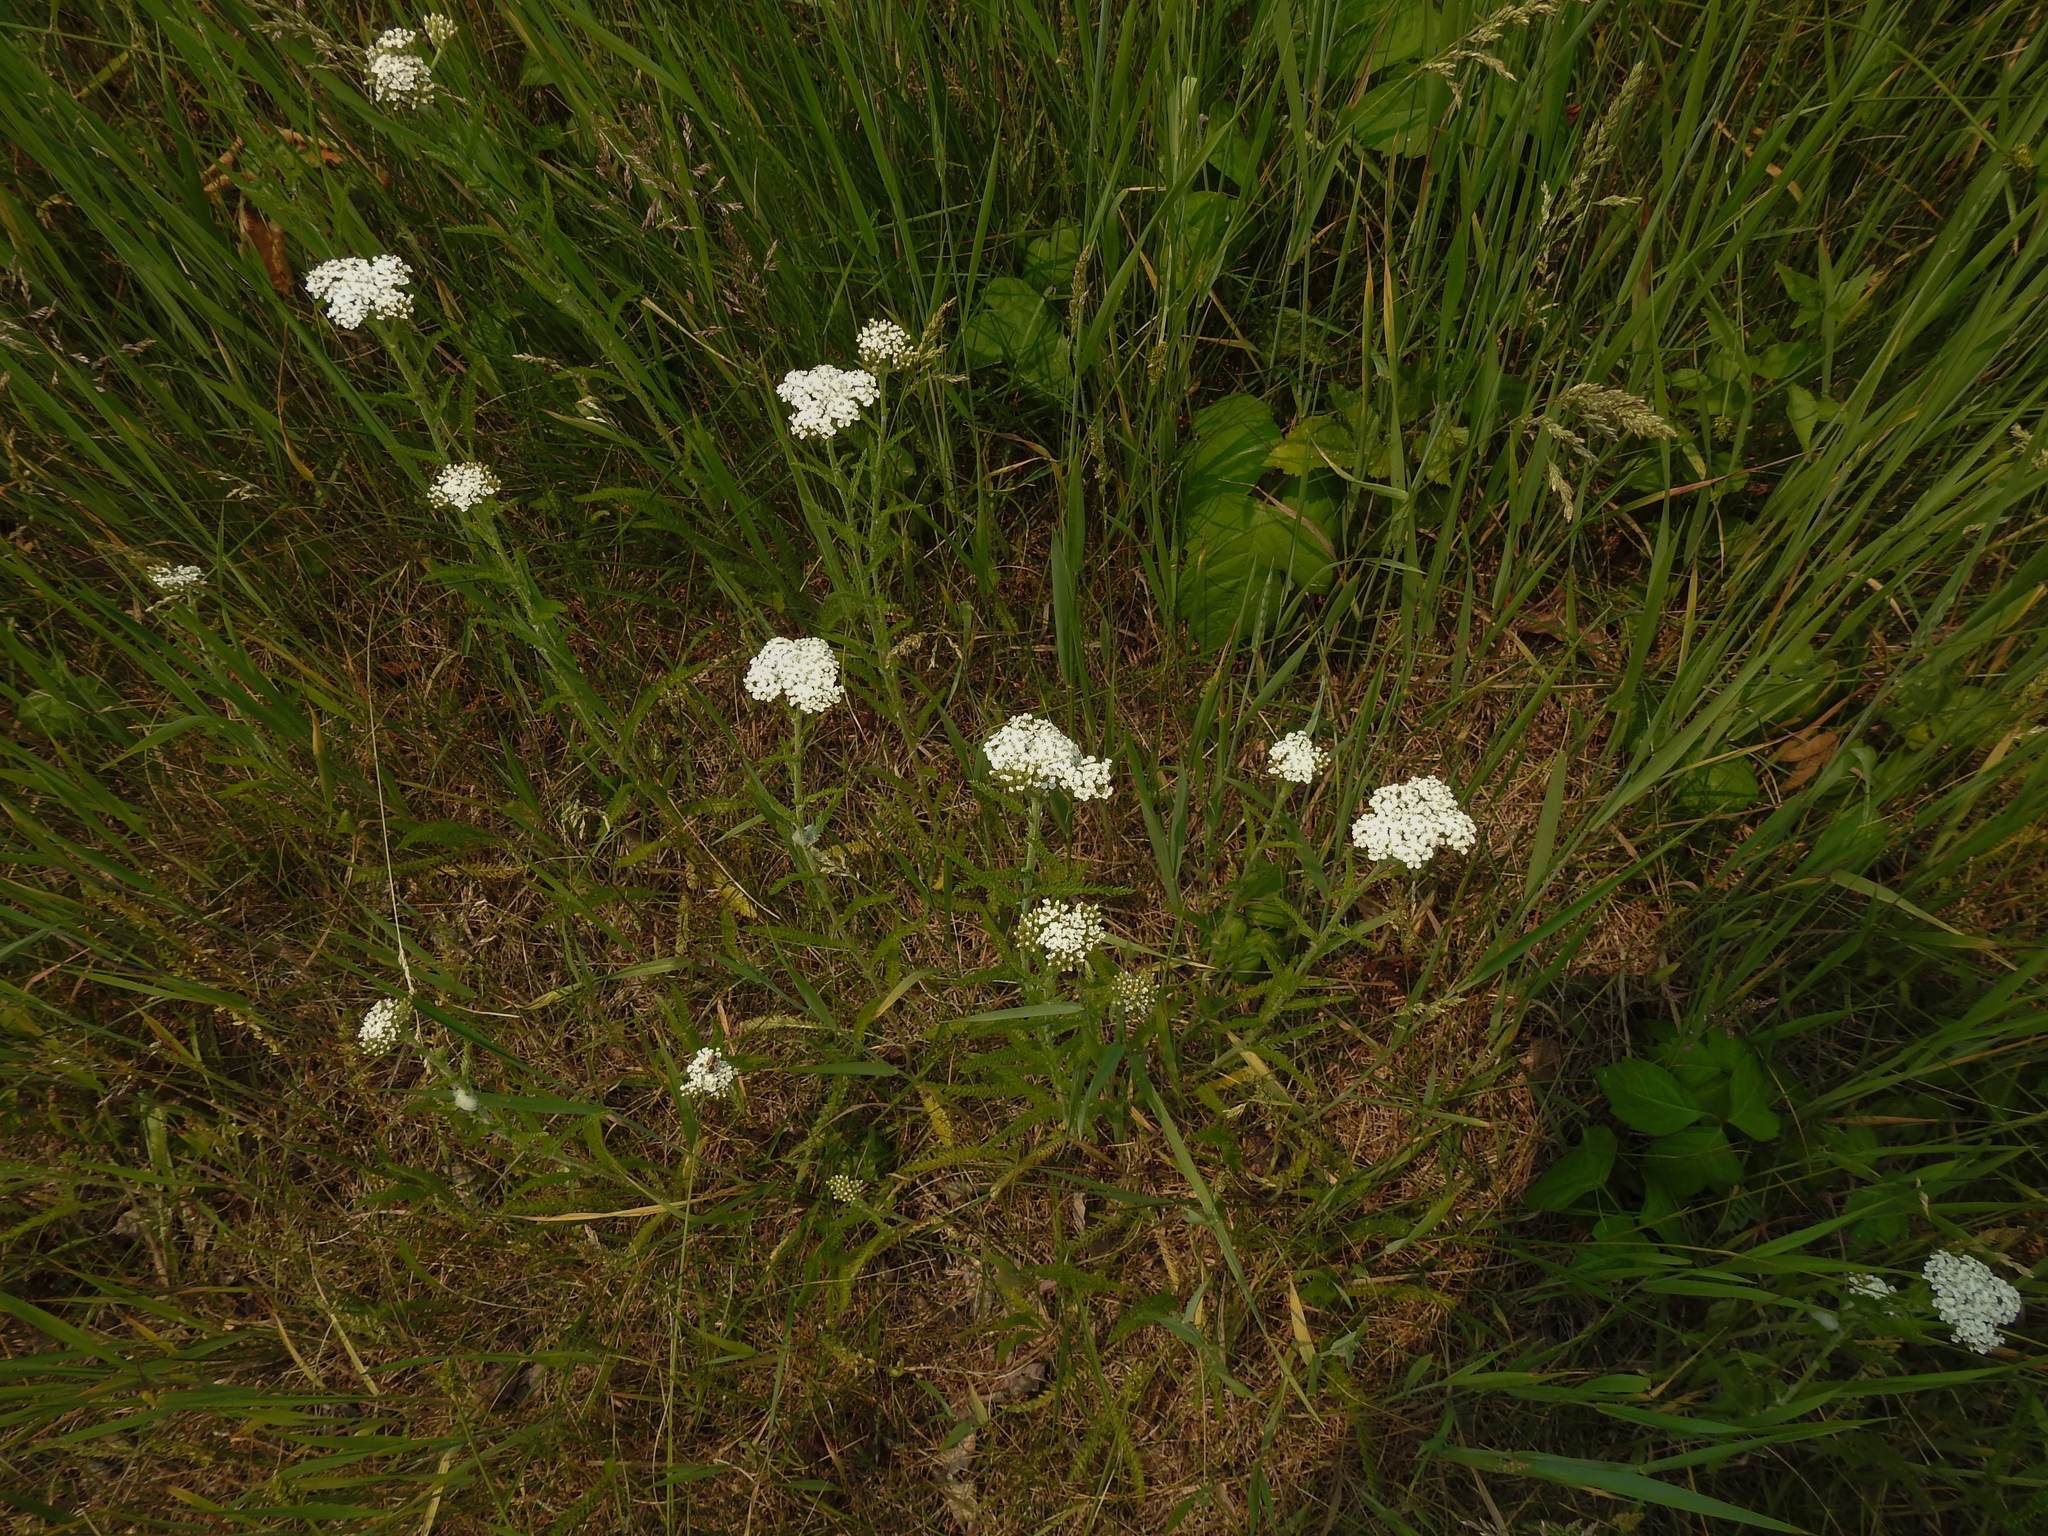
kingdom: Plantae
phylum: Tracheophyta
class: Magnoliopsida
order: Asterales
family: Asteraceae
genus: Achillea
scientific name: Achillea millefolium
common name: Yarrow
